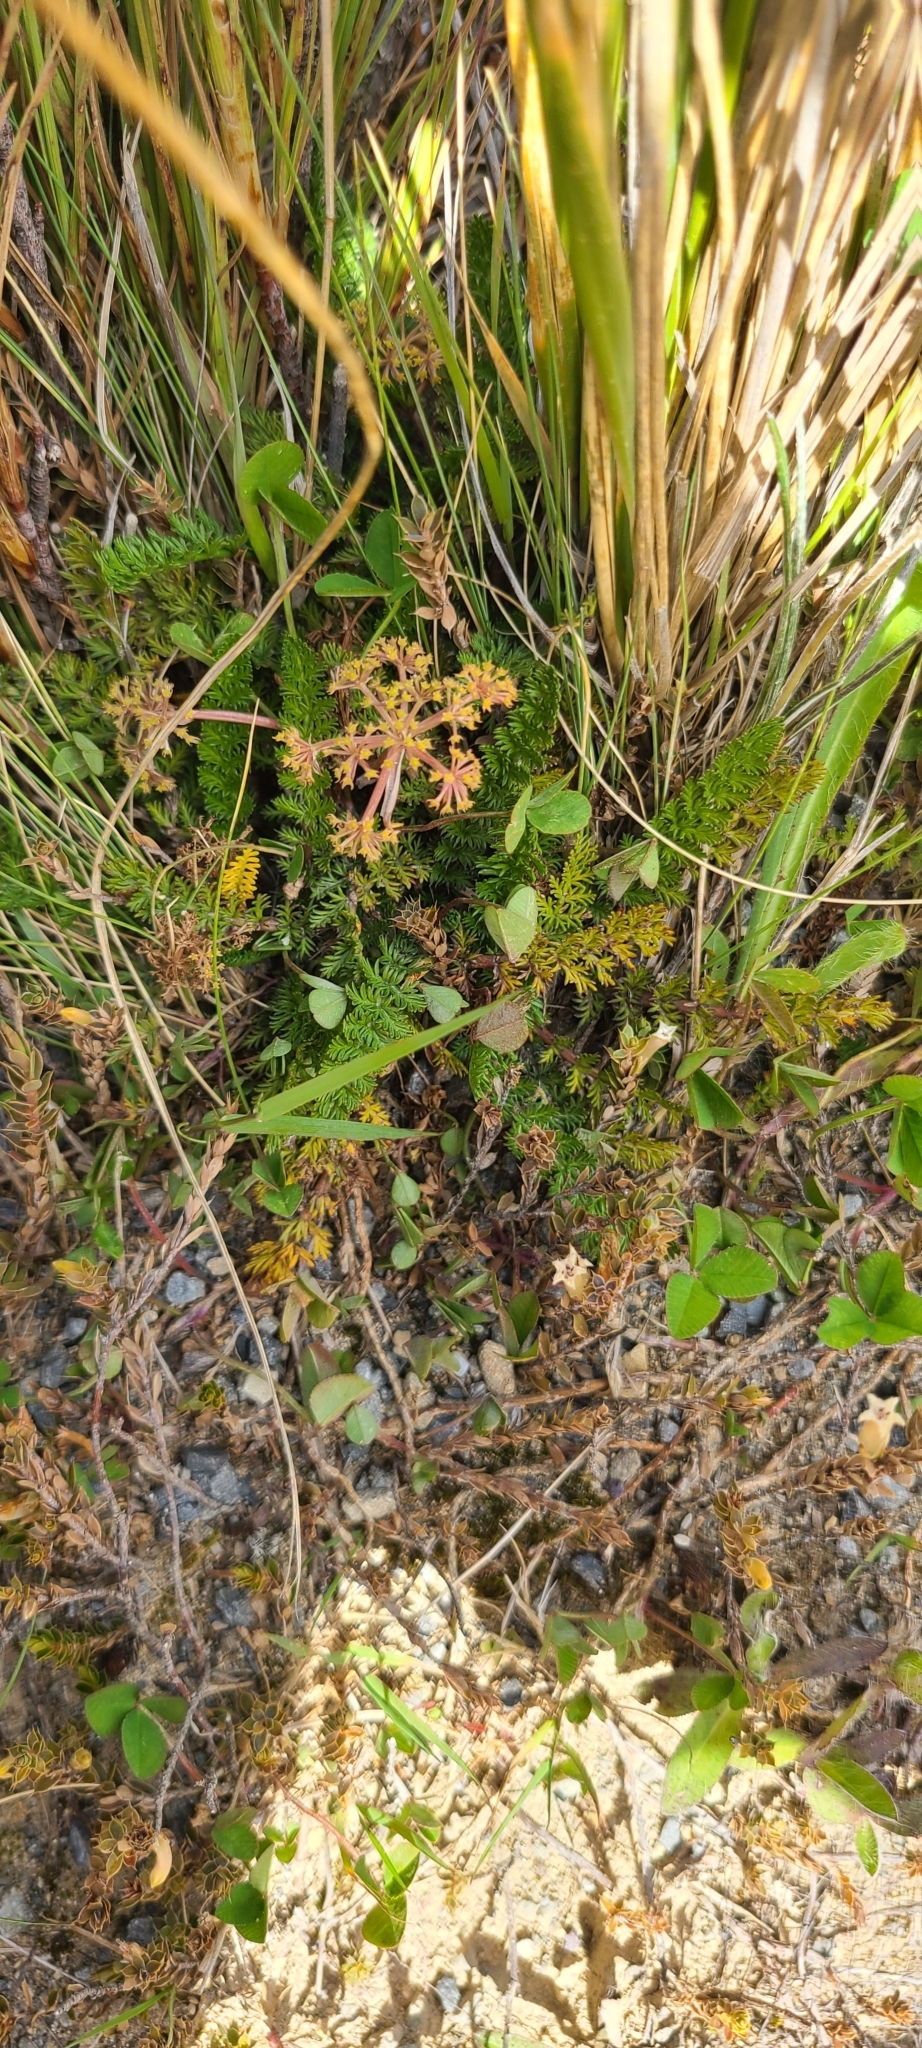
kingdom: Plantae
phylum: Tracheophyta
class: Magnoliopsida
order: Apiales
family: Apiaceae
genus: Anisotome
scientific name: Anisotome flexuosa
